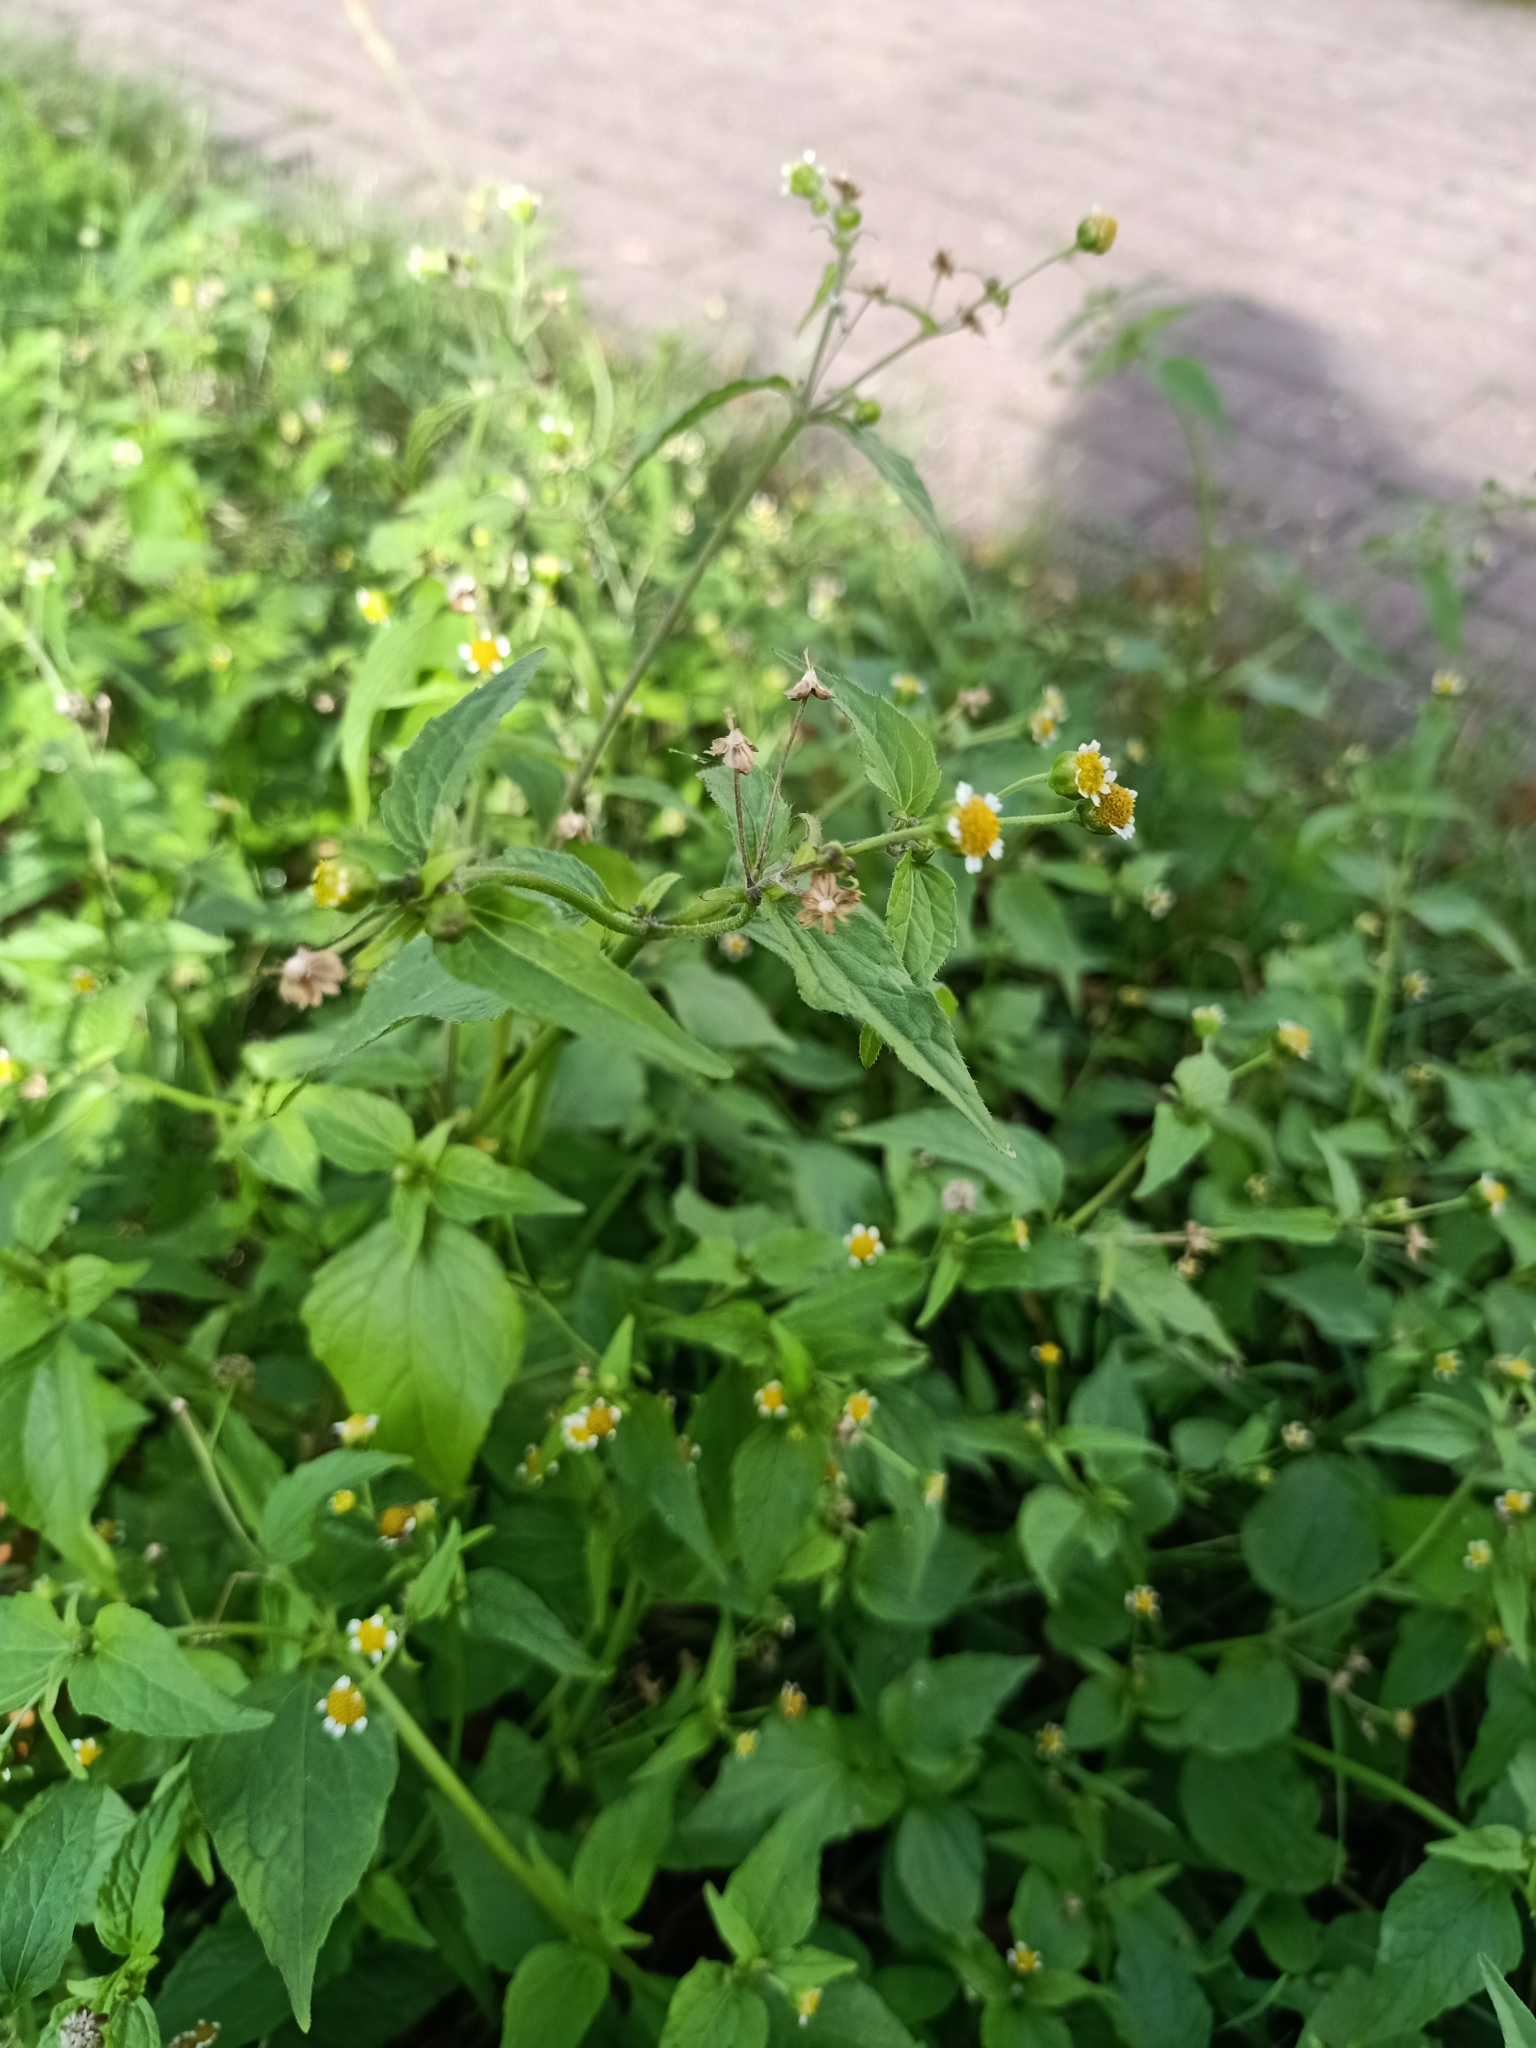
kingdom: Plantae
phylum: Tracheophyta
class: Magnoliopsida
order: Asterales
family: Asteraceae
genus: Galinsoga
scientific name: Galinsoga parviflora
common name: Gallant soldier
